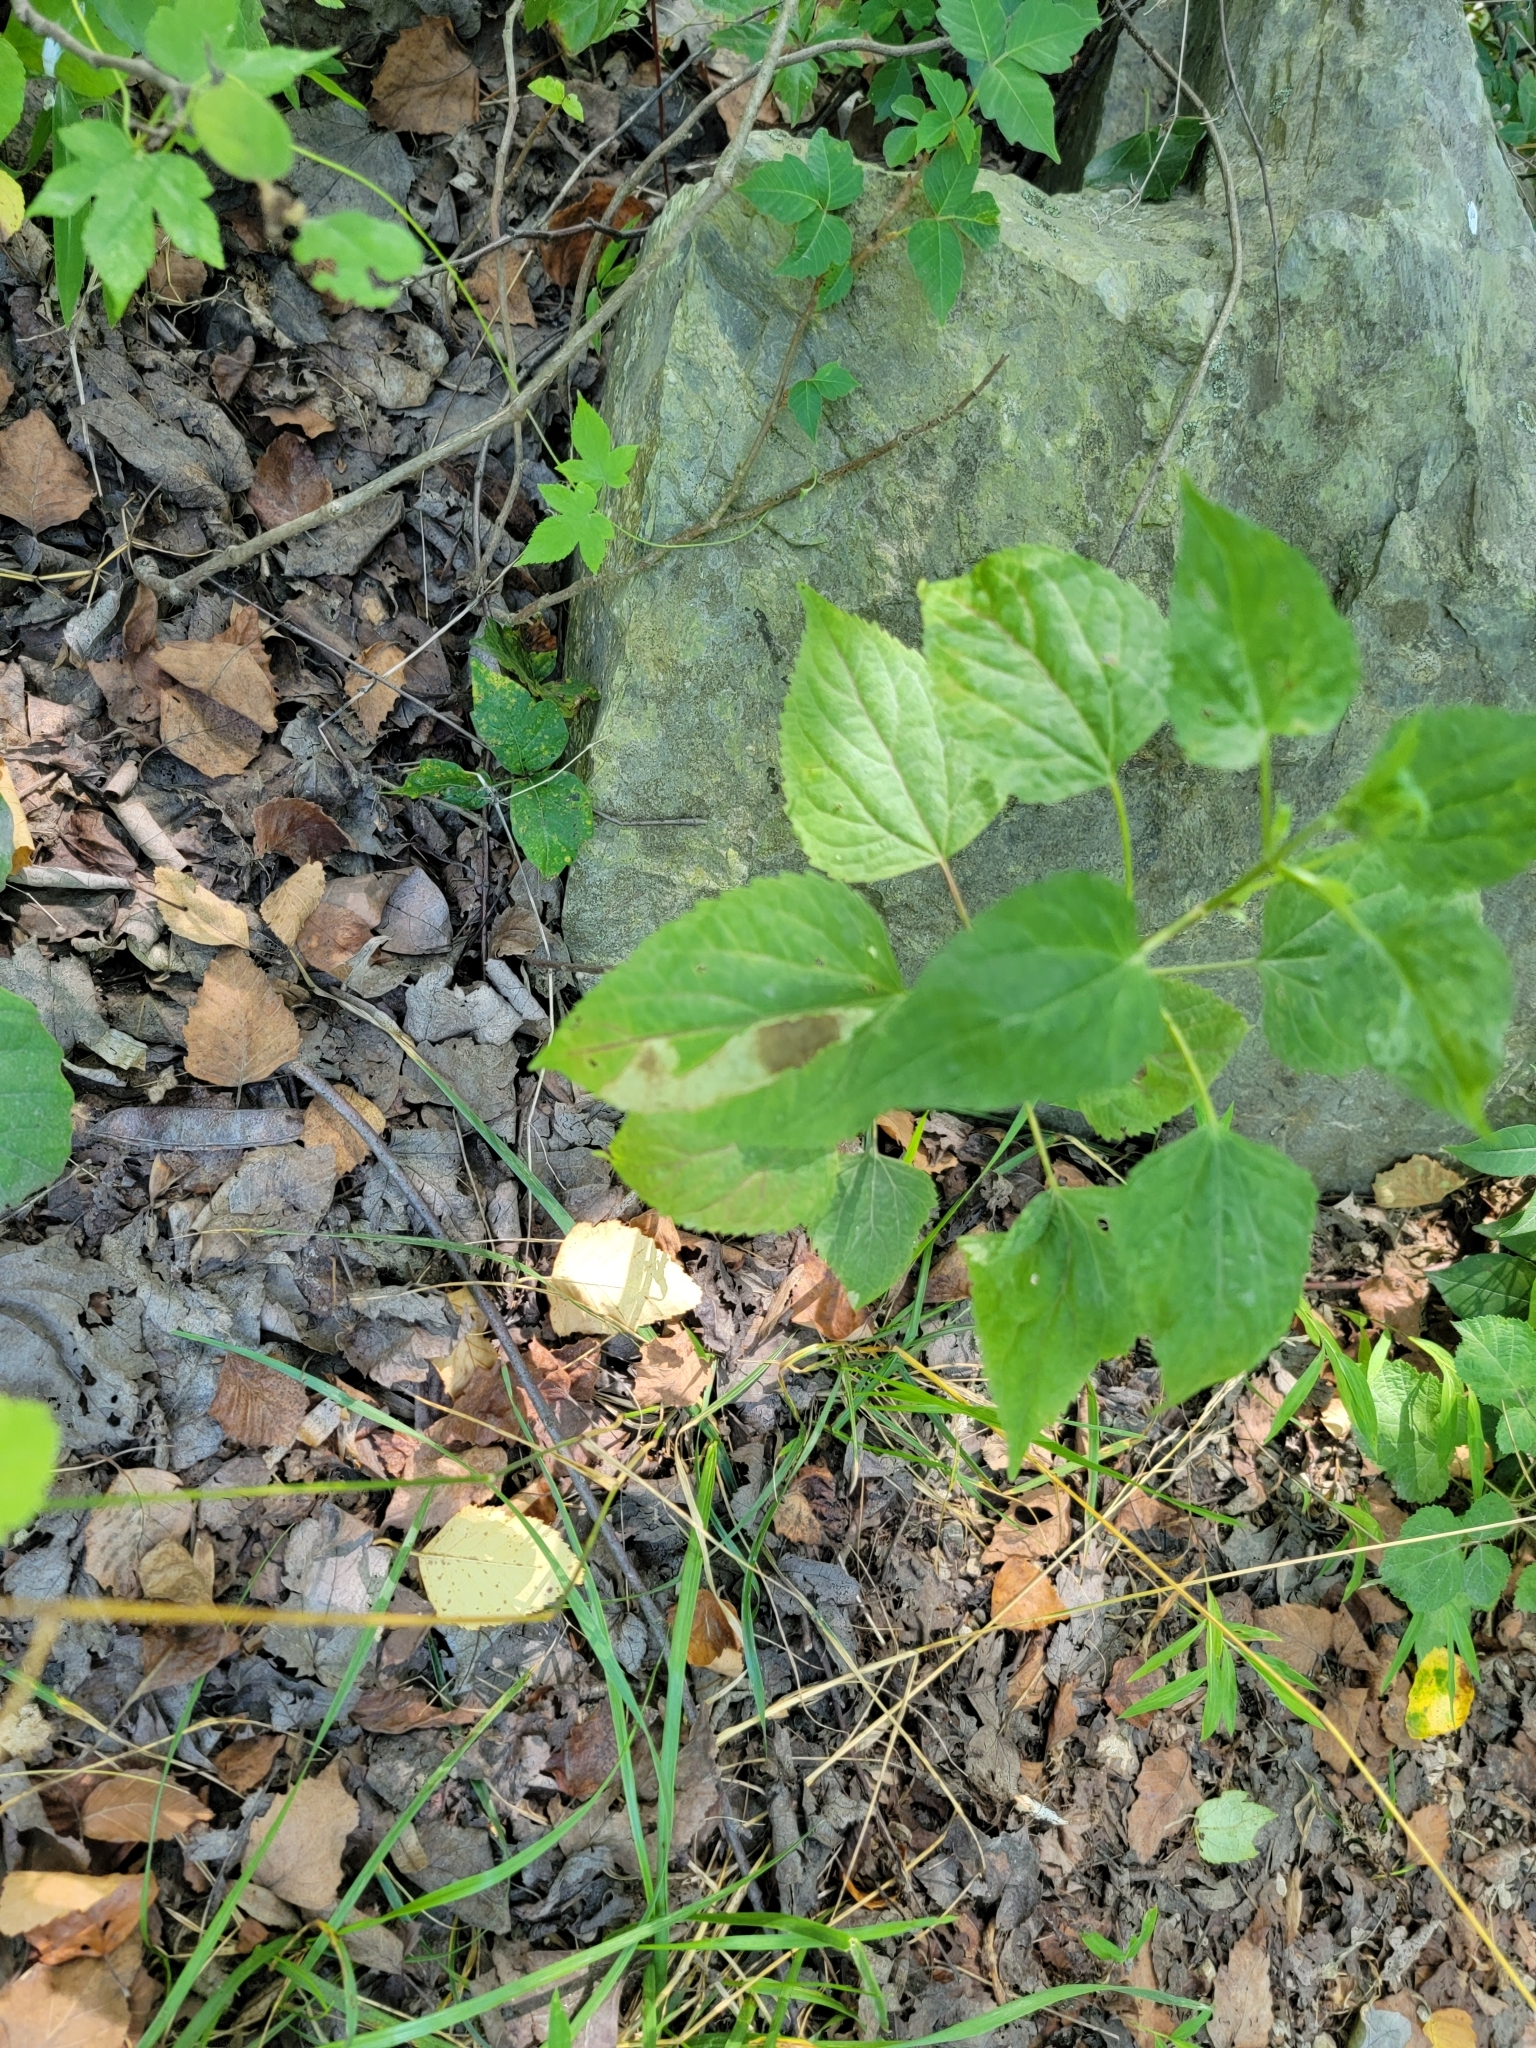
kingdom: Plantae
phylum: Tracheophyta
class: Magnoliopsida
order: Asterales
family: Asteraceae
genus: Ageratina
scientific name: Ageratina altissima
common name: White snakeroot
